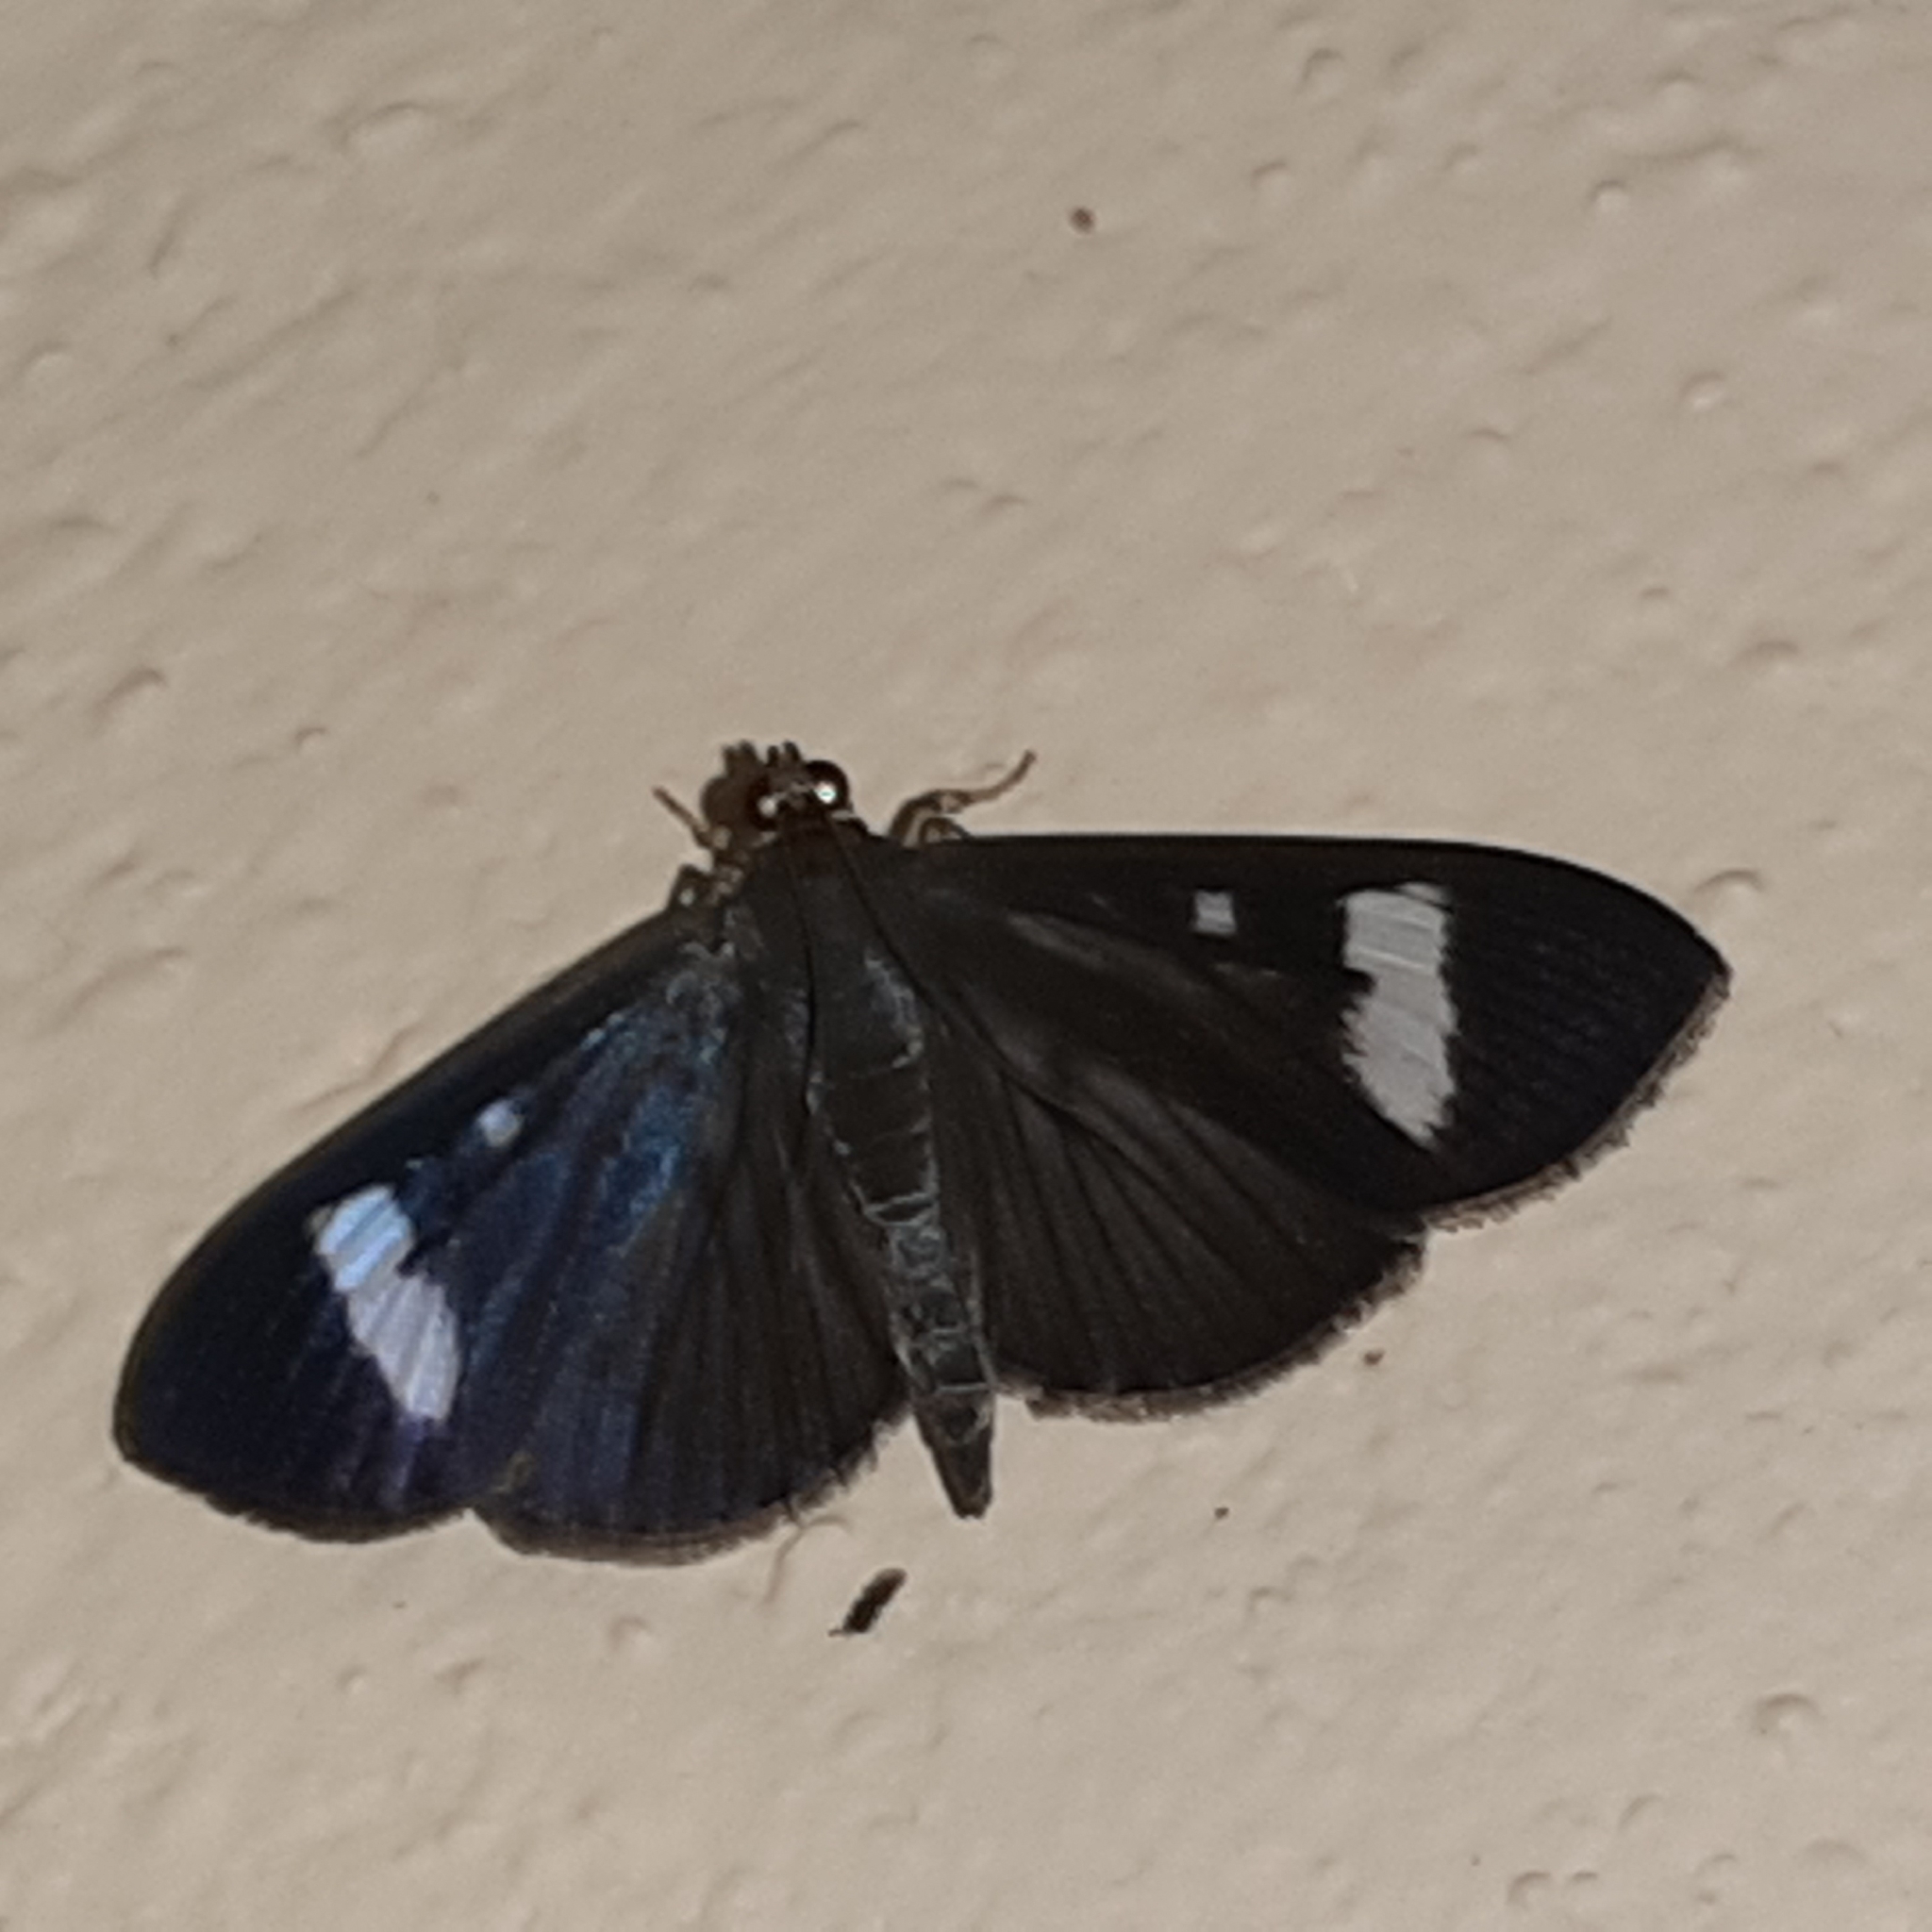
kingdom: Animalia
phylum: Arthropoda
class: Insecta
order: Lepidoptera
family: Crambidae
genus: Phostria
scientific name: Phostria Erilusa leucoplagialis
